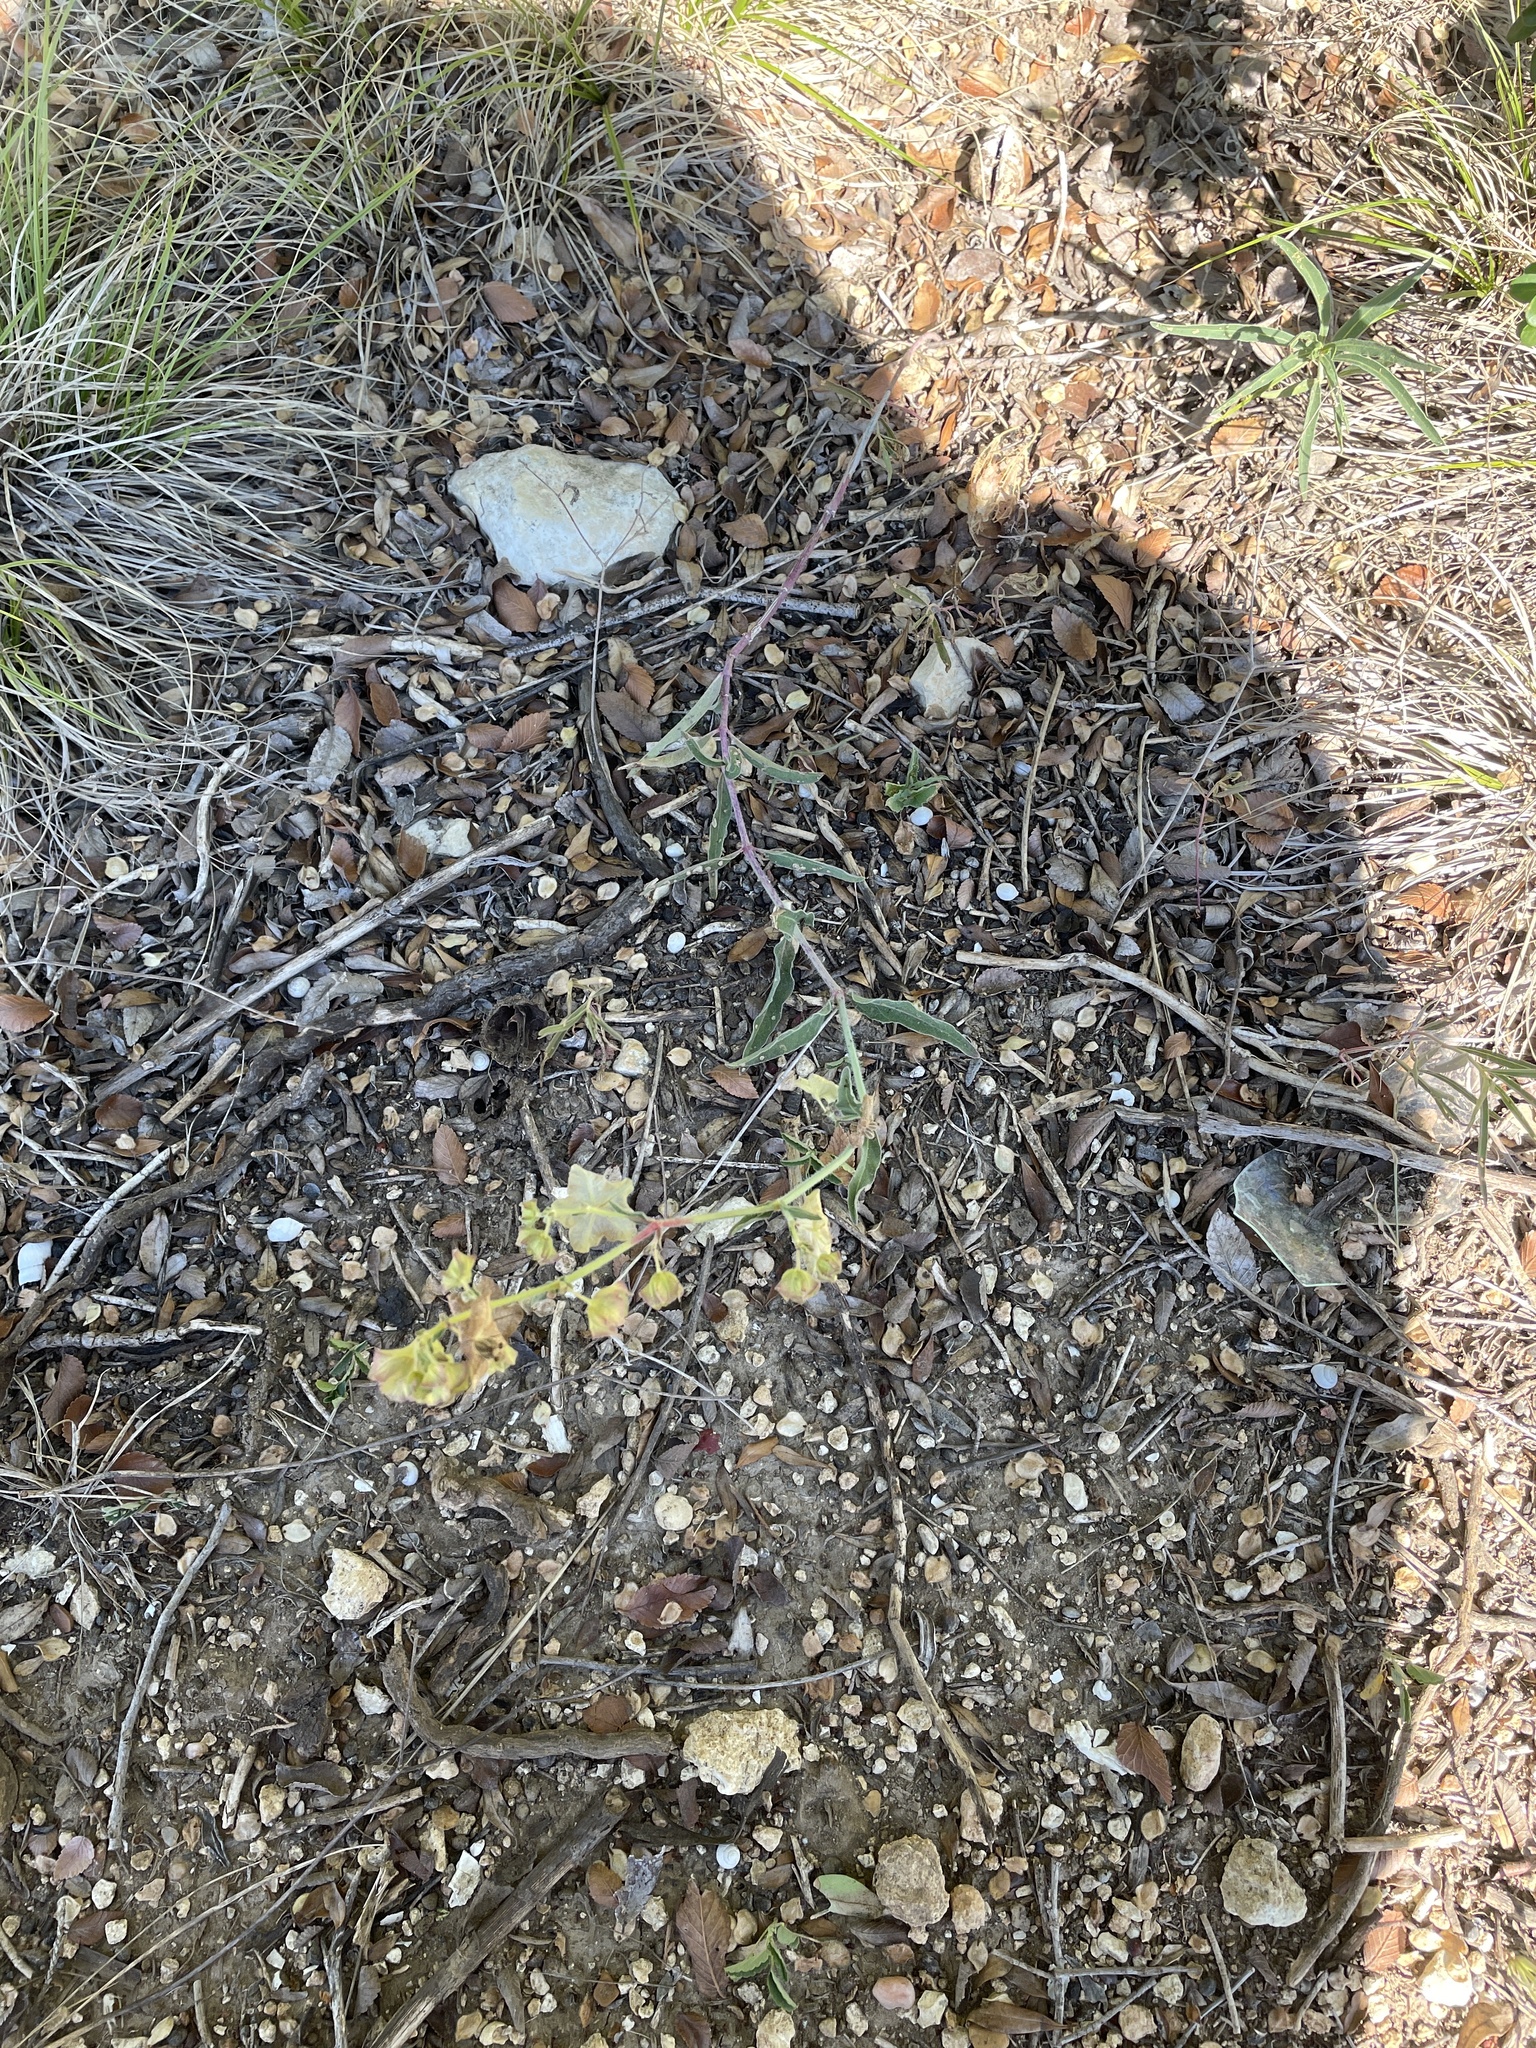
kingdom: Plantae
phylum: Tracheophyta
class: Magnoliopsida
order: Caryophyllales
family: Nyctaginaceae
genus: Mirabilis
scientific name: Mirabilis albida
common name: Hairy four-o'clock
